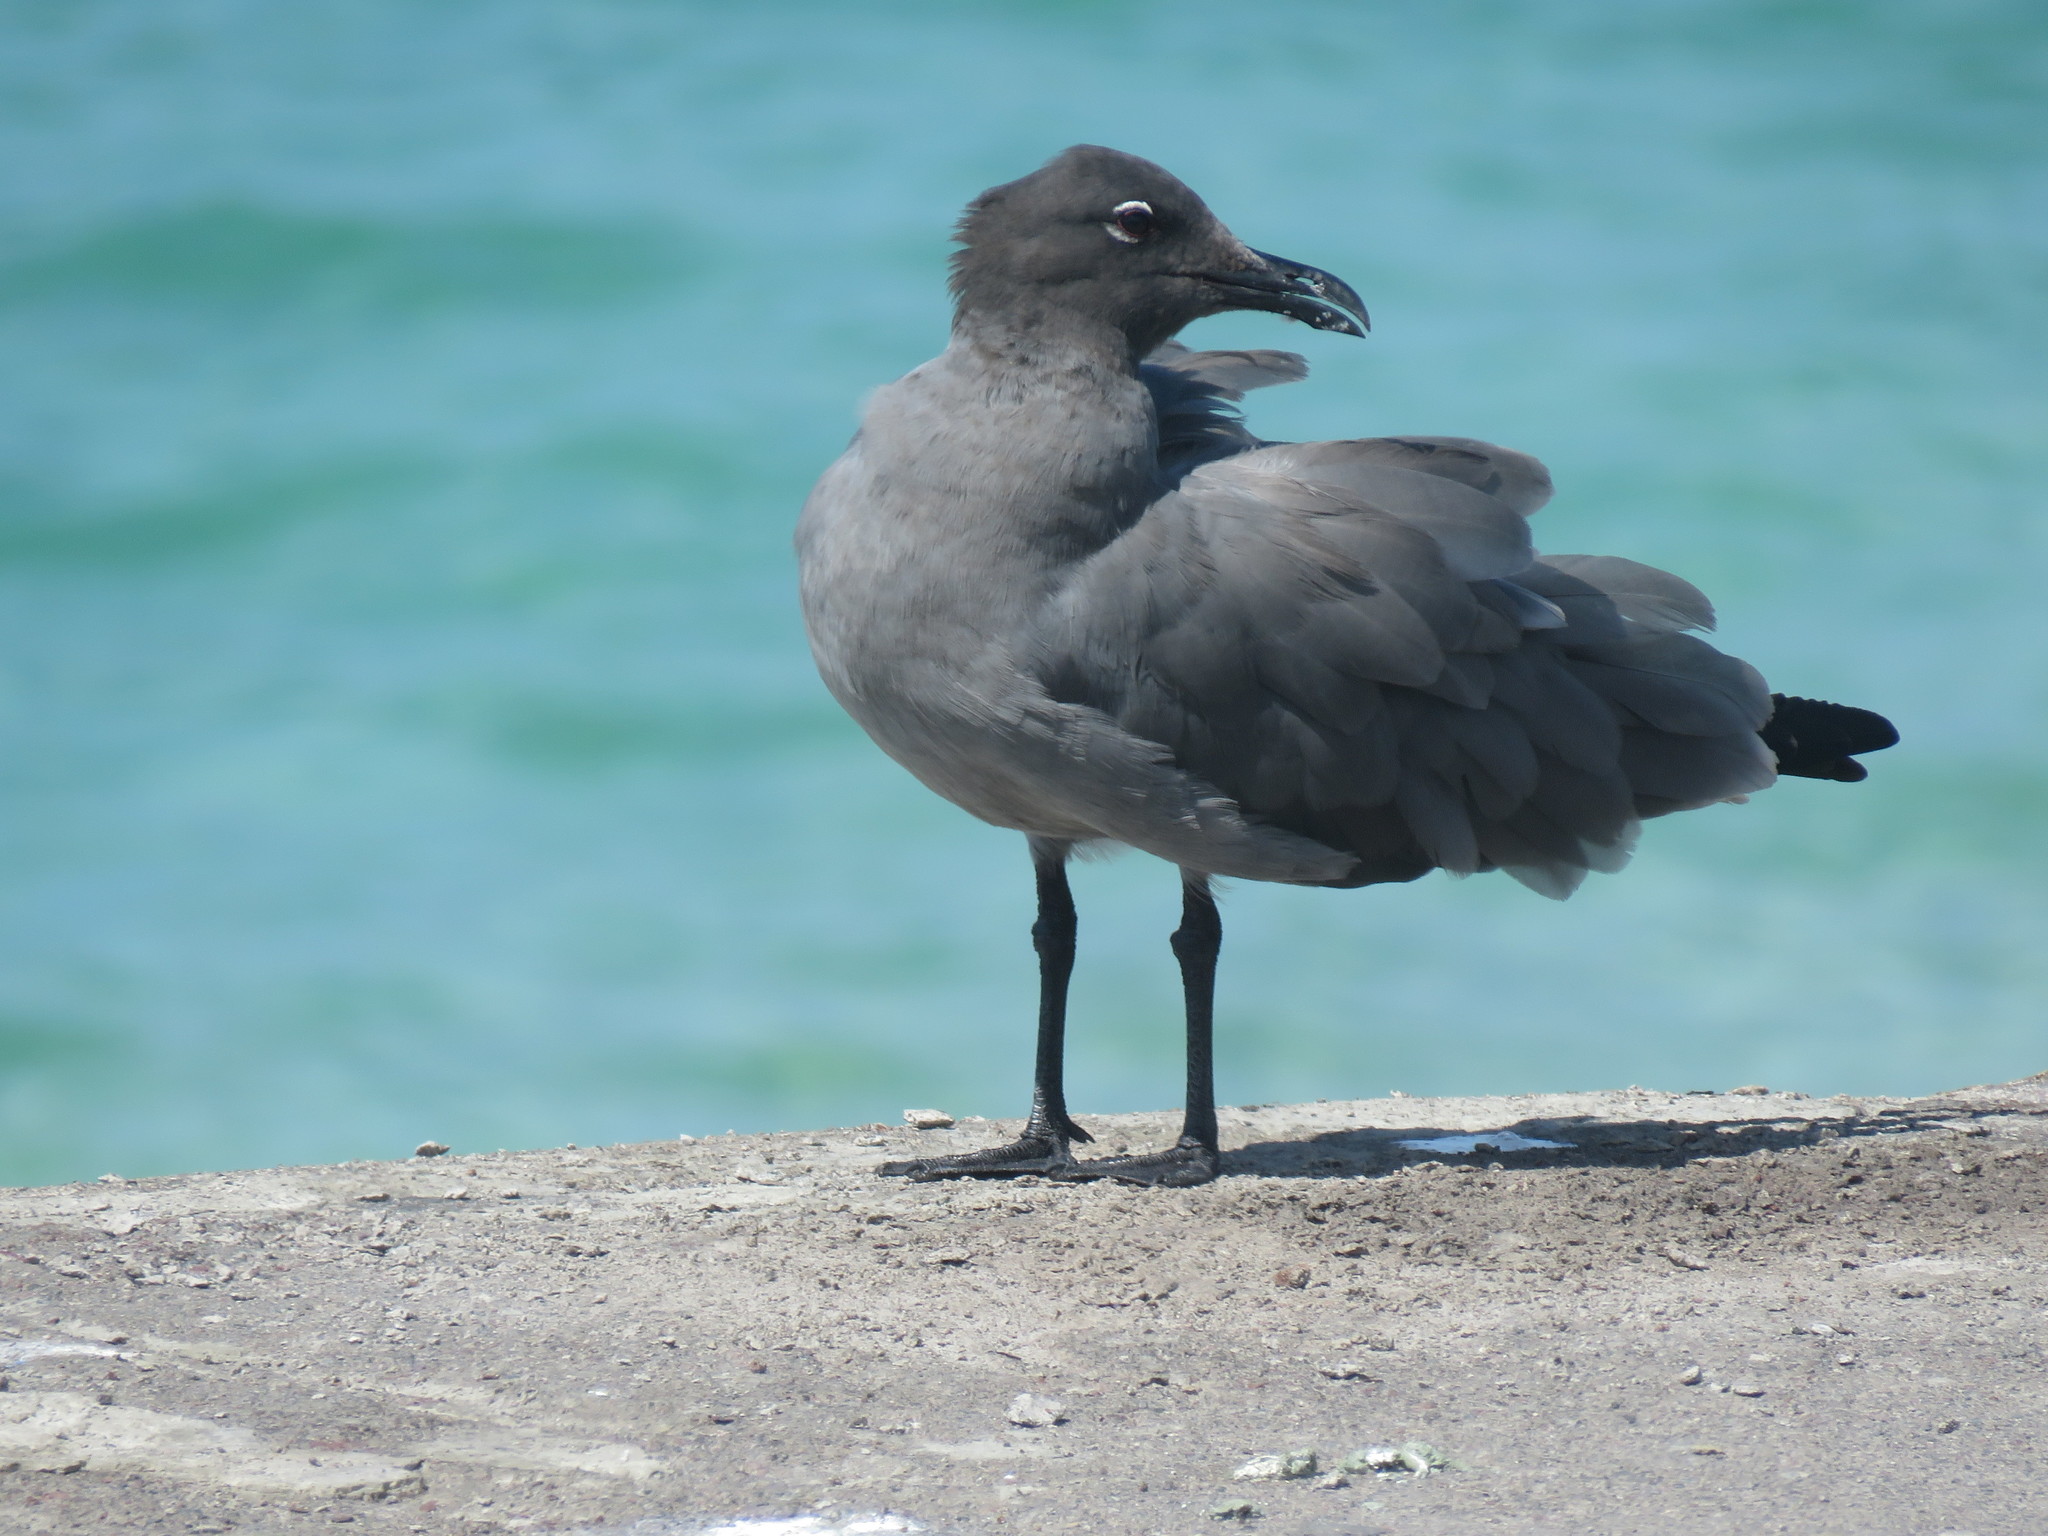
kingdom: Animalia
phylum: Chordata
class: Aves
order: Charadriiformes
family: Laridae
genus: Leucophaeus
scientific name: Leucophaeus fuliginosus
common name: Lava gull
